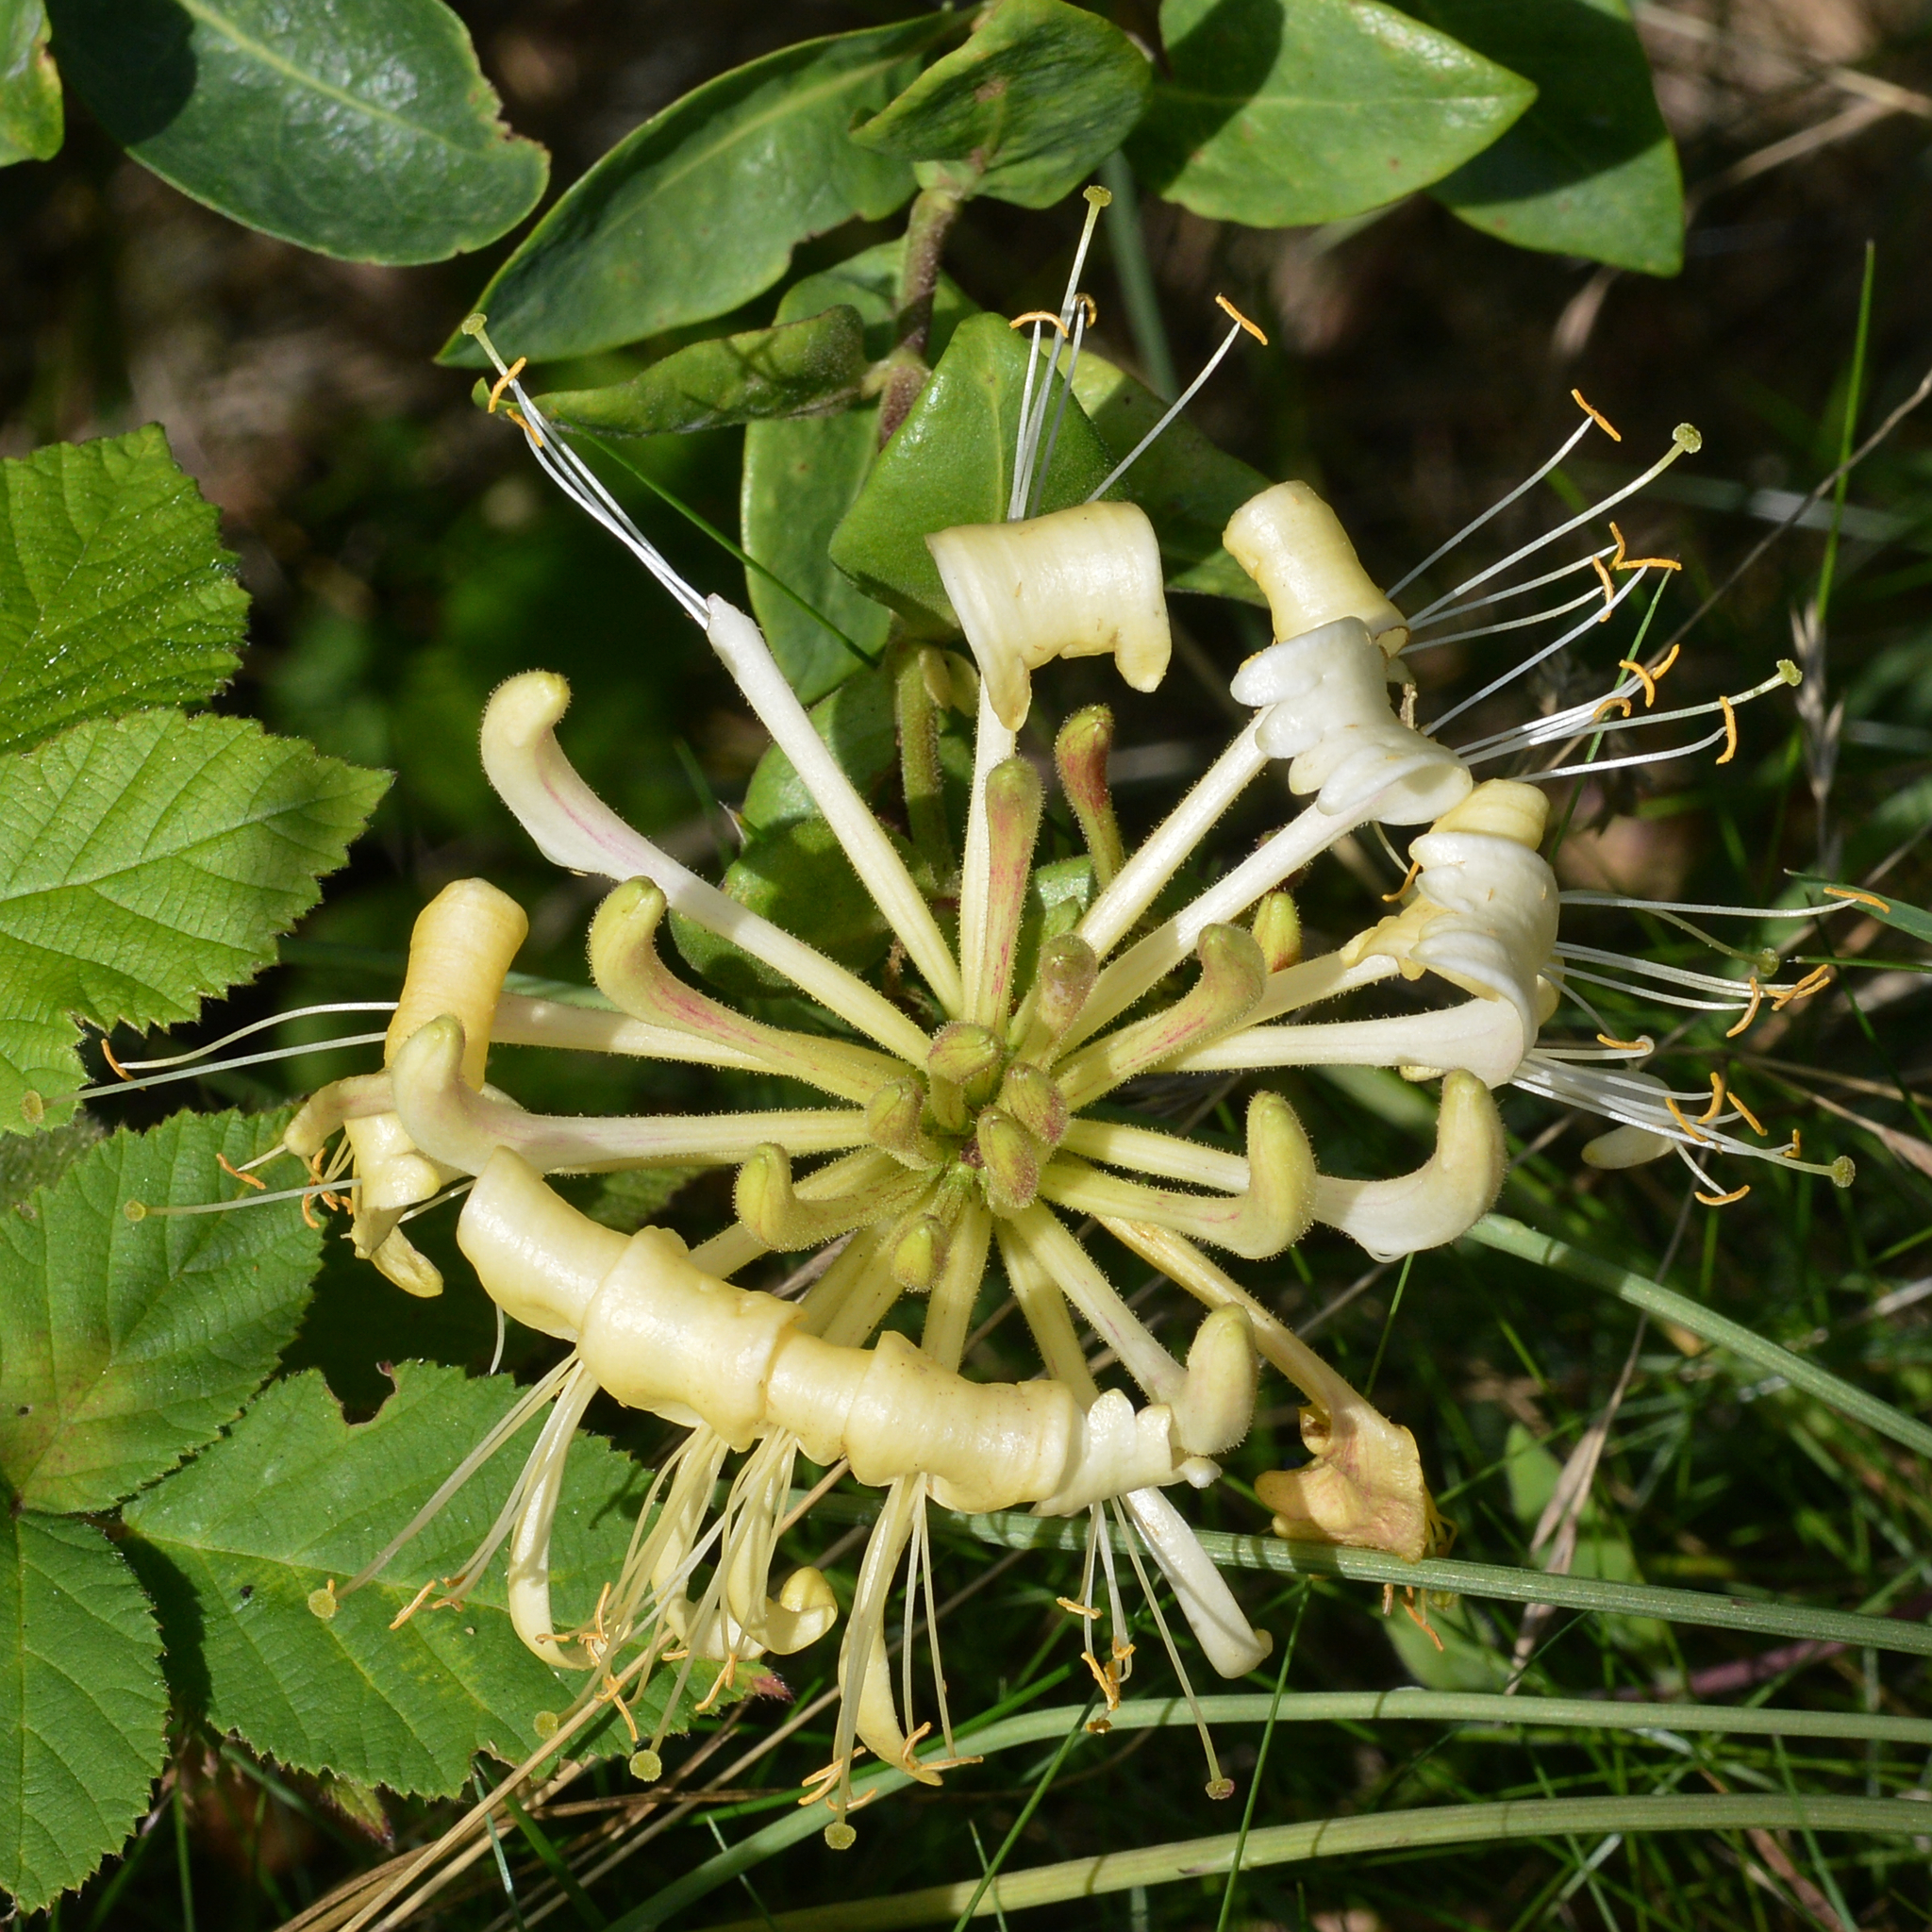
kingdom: Plantae
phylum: Tracheophyta
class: Magnoliopsida
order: Dipsacales
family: Caprifoliaceae
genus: Lonicera
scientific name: Lonicera periclymenum
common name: European honeysuckle
